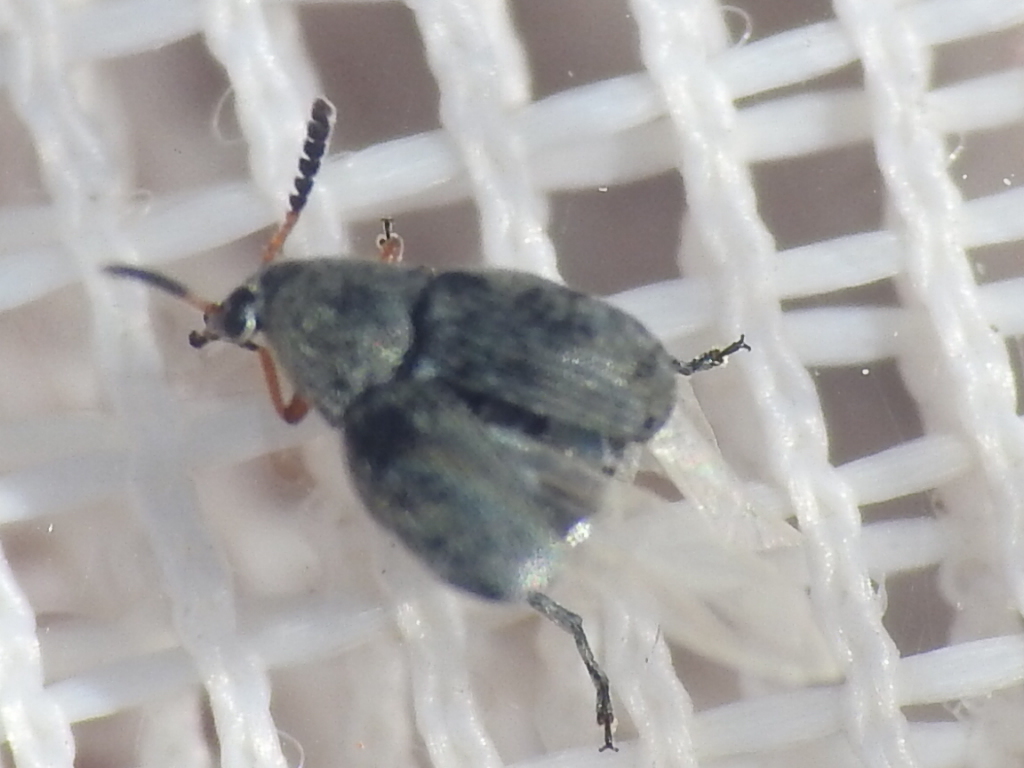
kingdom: Animalia
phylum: Arthropoda
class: Insecta
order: Coleoptera
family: Chrysomelidae
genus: Acanthoscelides
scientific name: Acanthoscelides compressicornis
